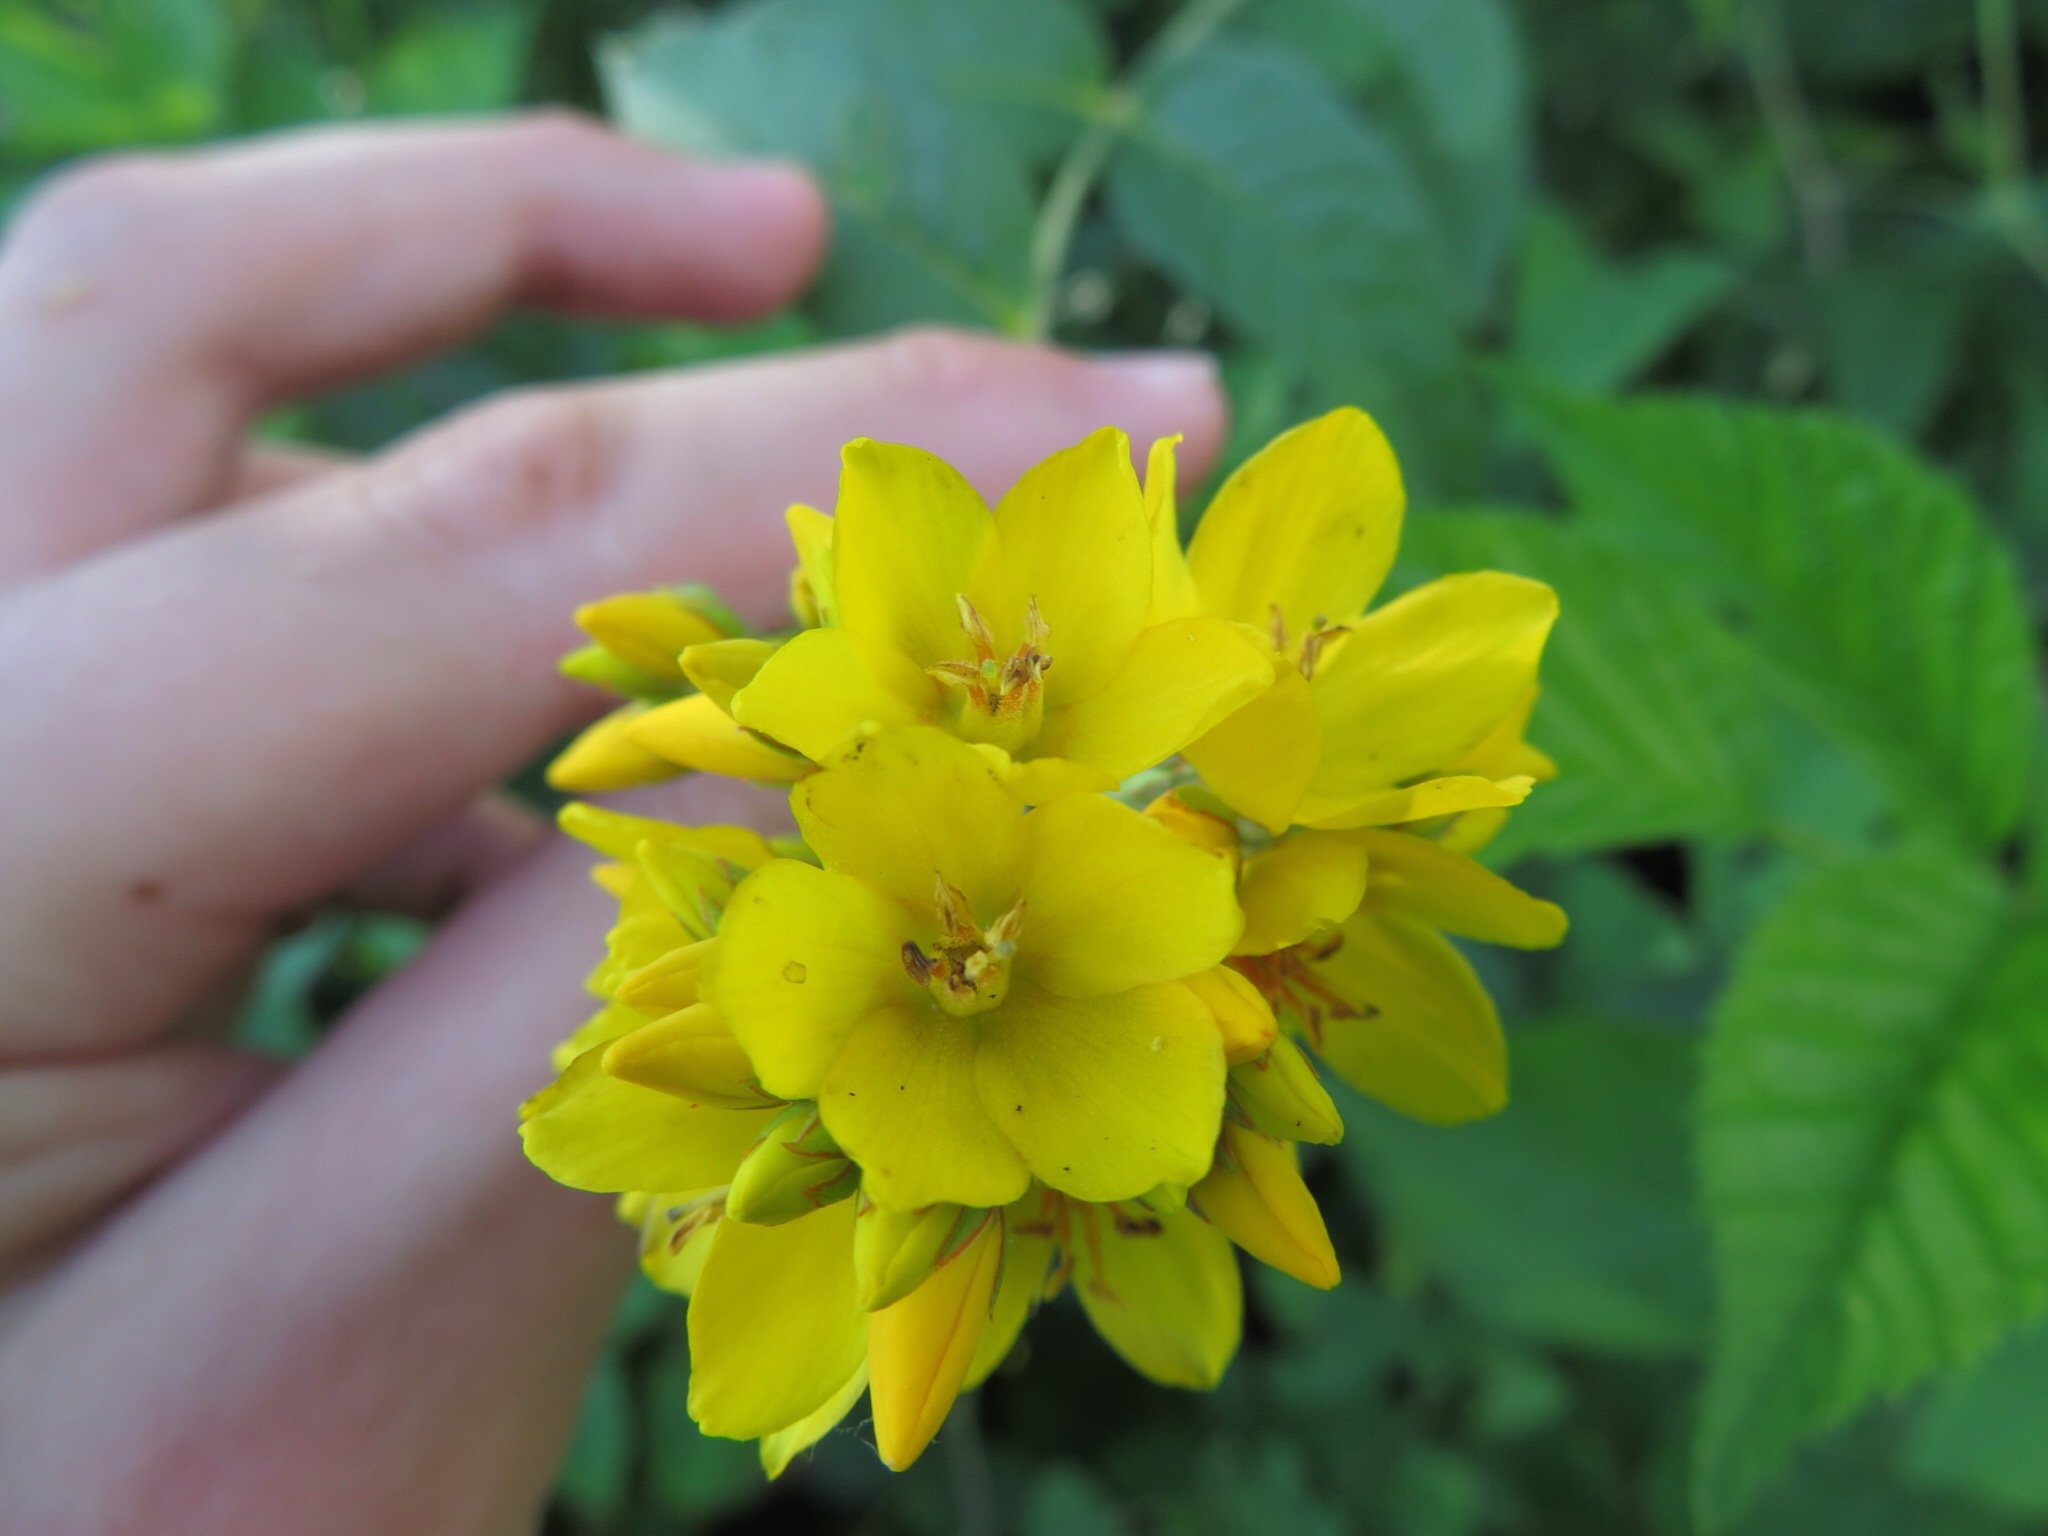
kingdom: Plantae
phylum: Tracheophyta
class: Magnoliopsida
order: Ericales
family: Primulaceae
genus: Lysimachia
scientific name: Lysimachia vulgaris
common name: Yellow loosestrife
